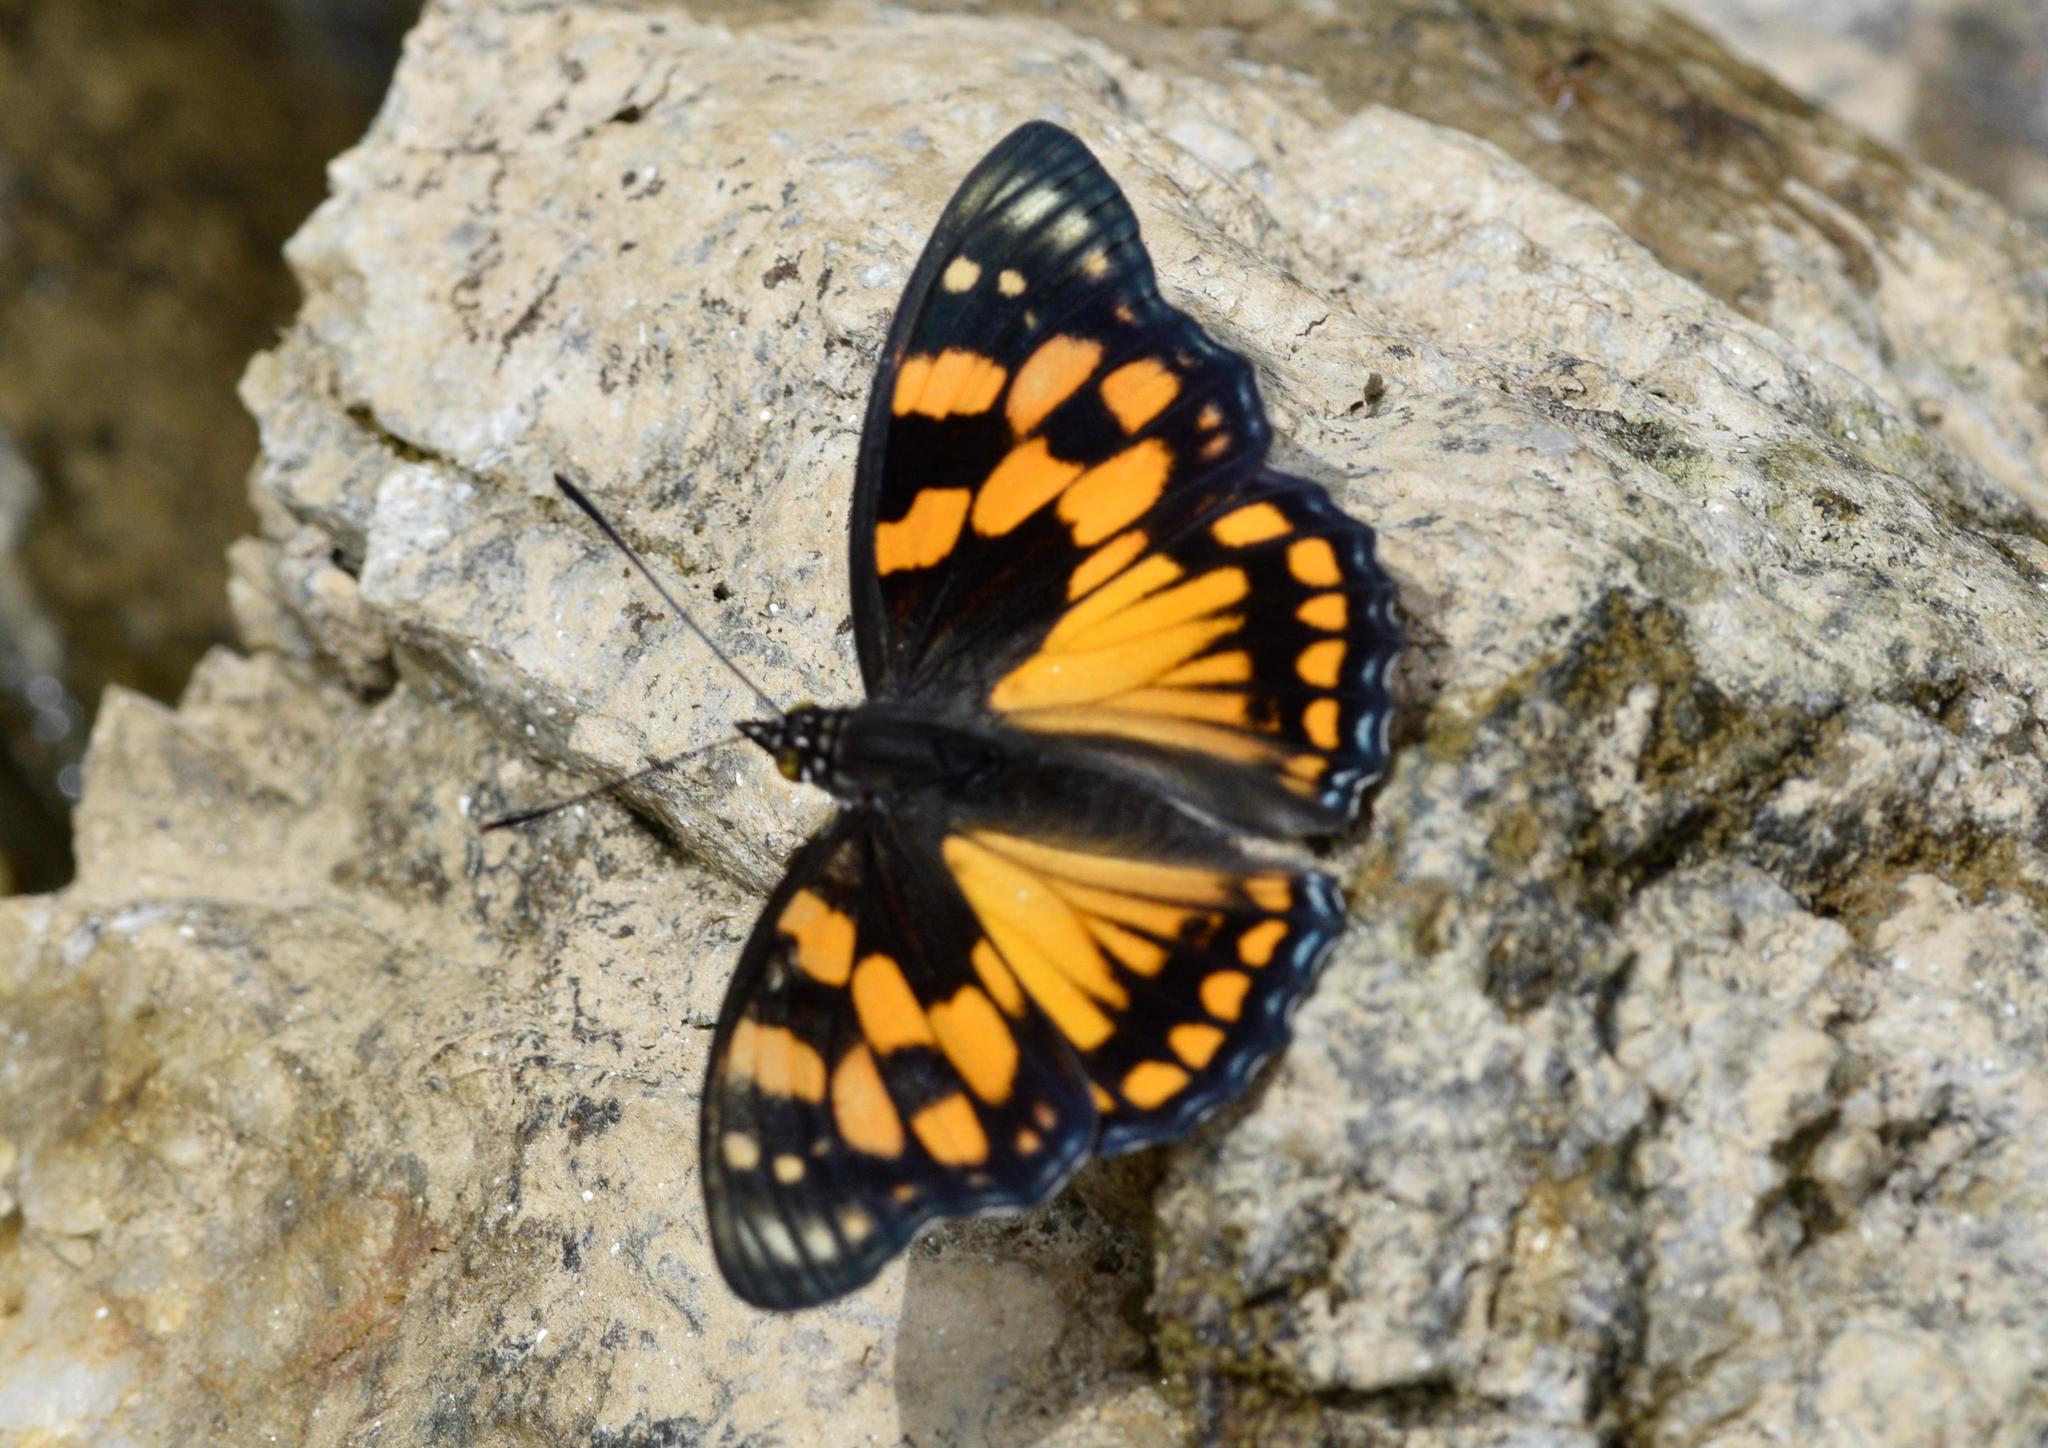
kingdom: Animalia
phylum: Arthropoda
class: Insecta
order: Lepidoptera
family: Nymphalidae
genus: Sephisa
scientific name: Sephisa dichroa
